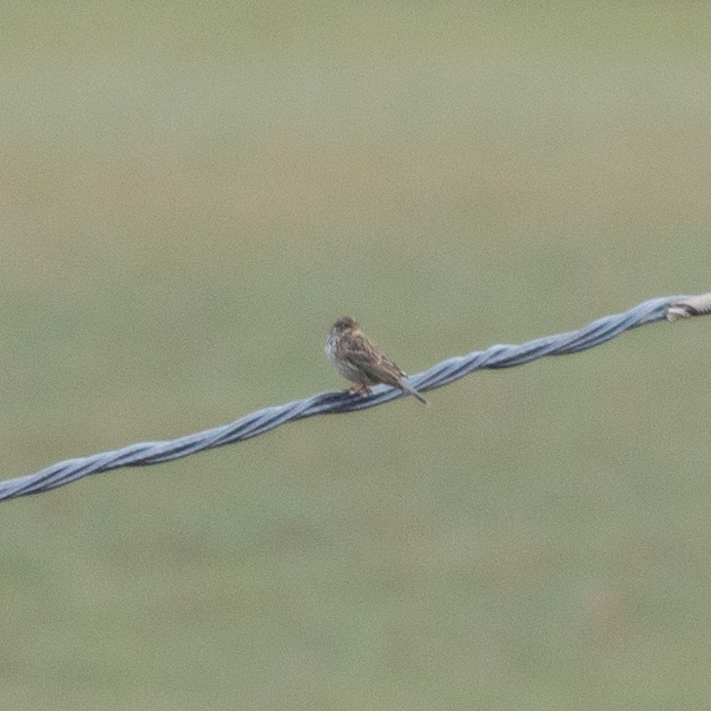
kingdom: Animalia
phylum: Chordata
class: Aves
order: Passeriformes
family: Emberizidae
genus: Emberiza
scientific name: Emberiza calandra
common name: Corn bunting
